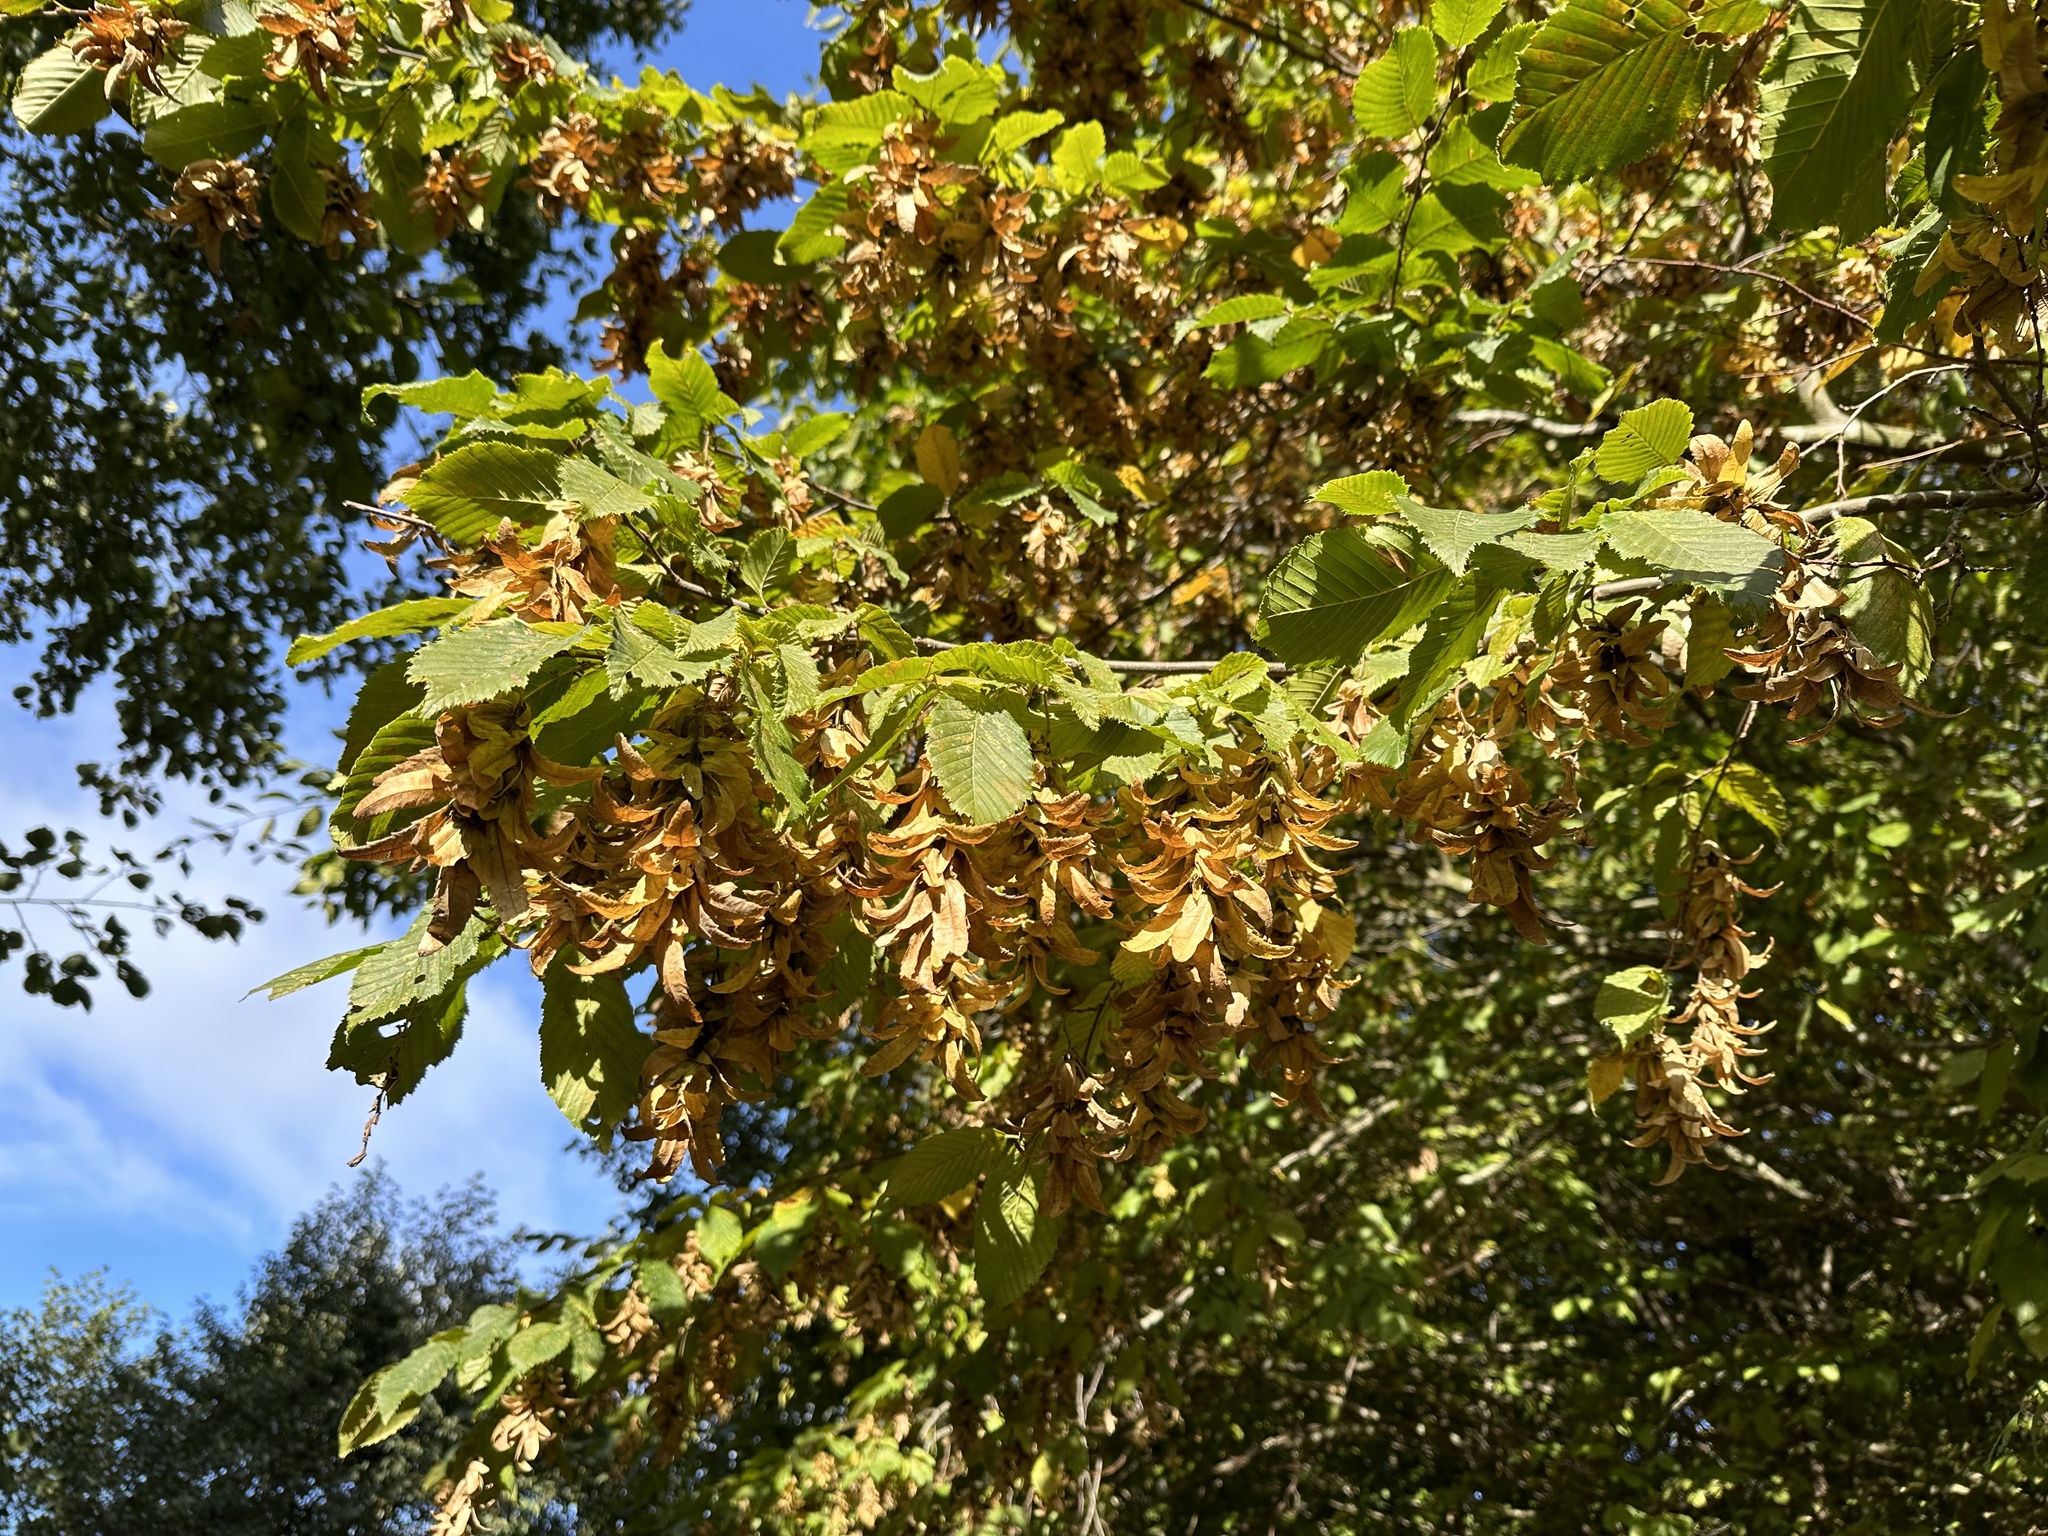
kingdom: Plantae
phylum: Tracheophyta
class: Magnoliopsida
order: Fagales
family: Betulaceae
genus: Carpinus
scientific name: Carpinus betulus
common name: Hornbeam
